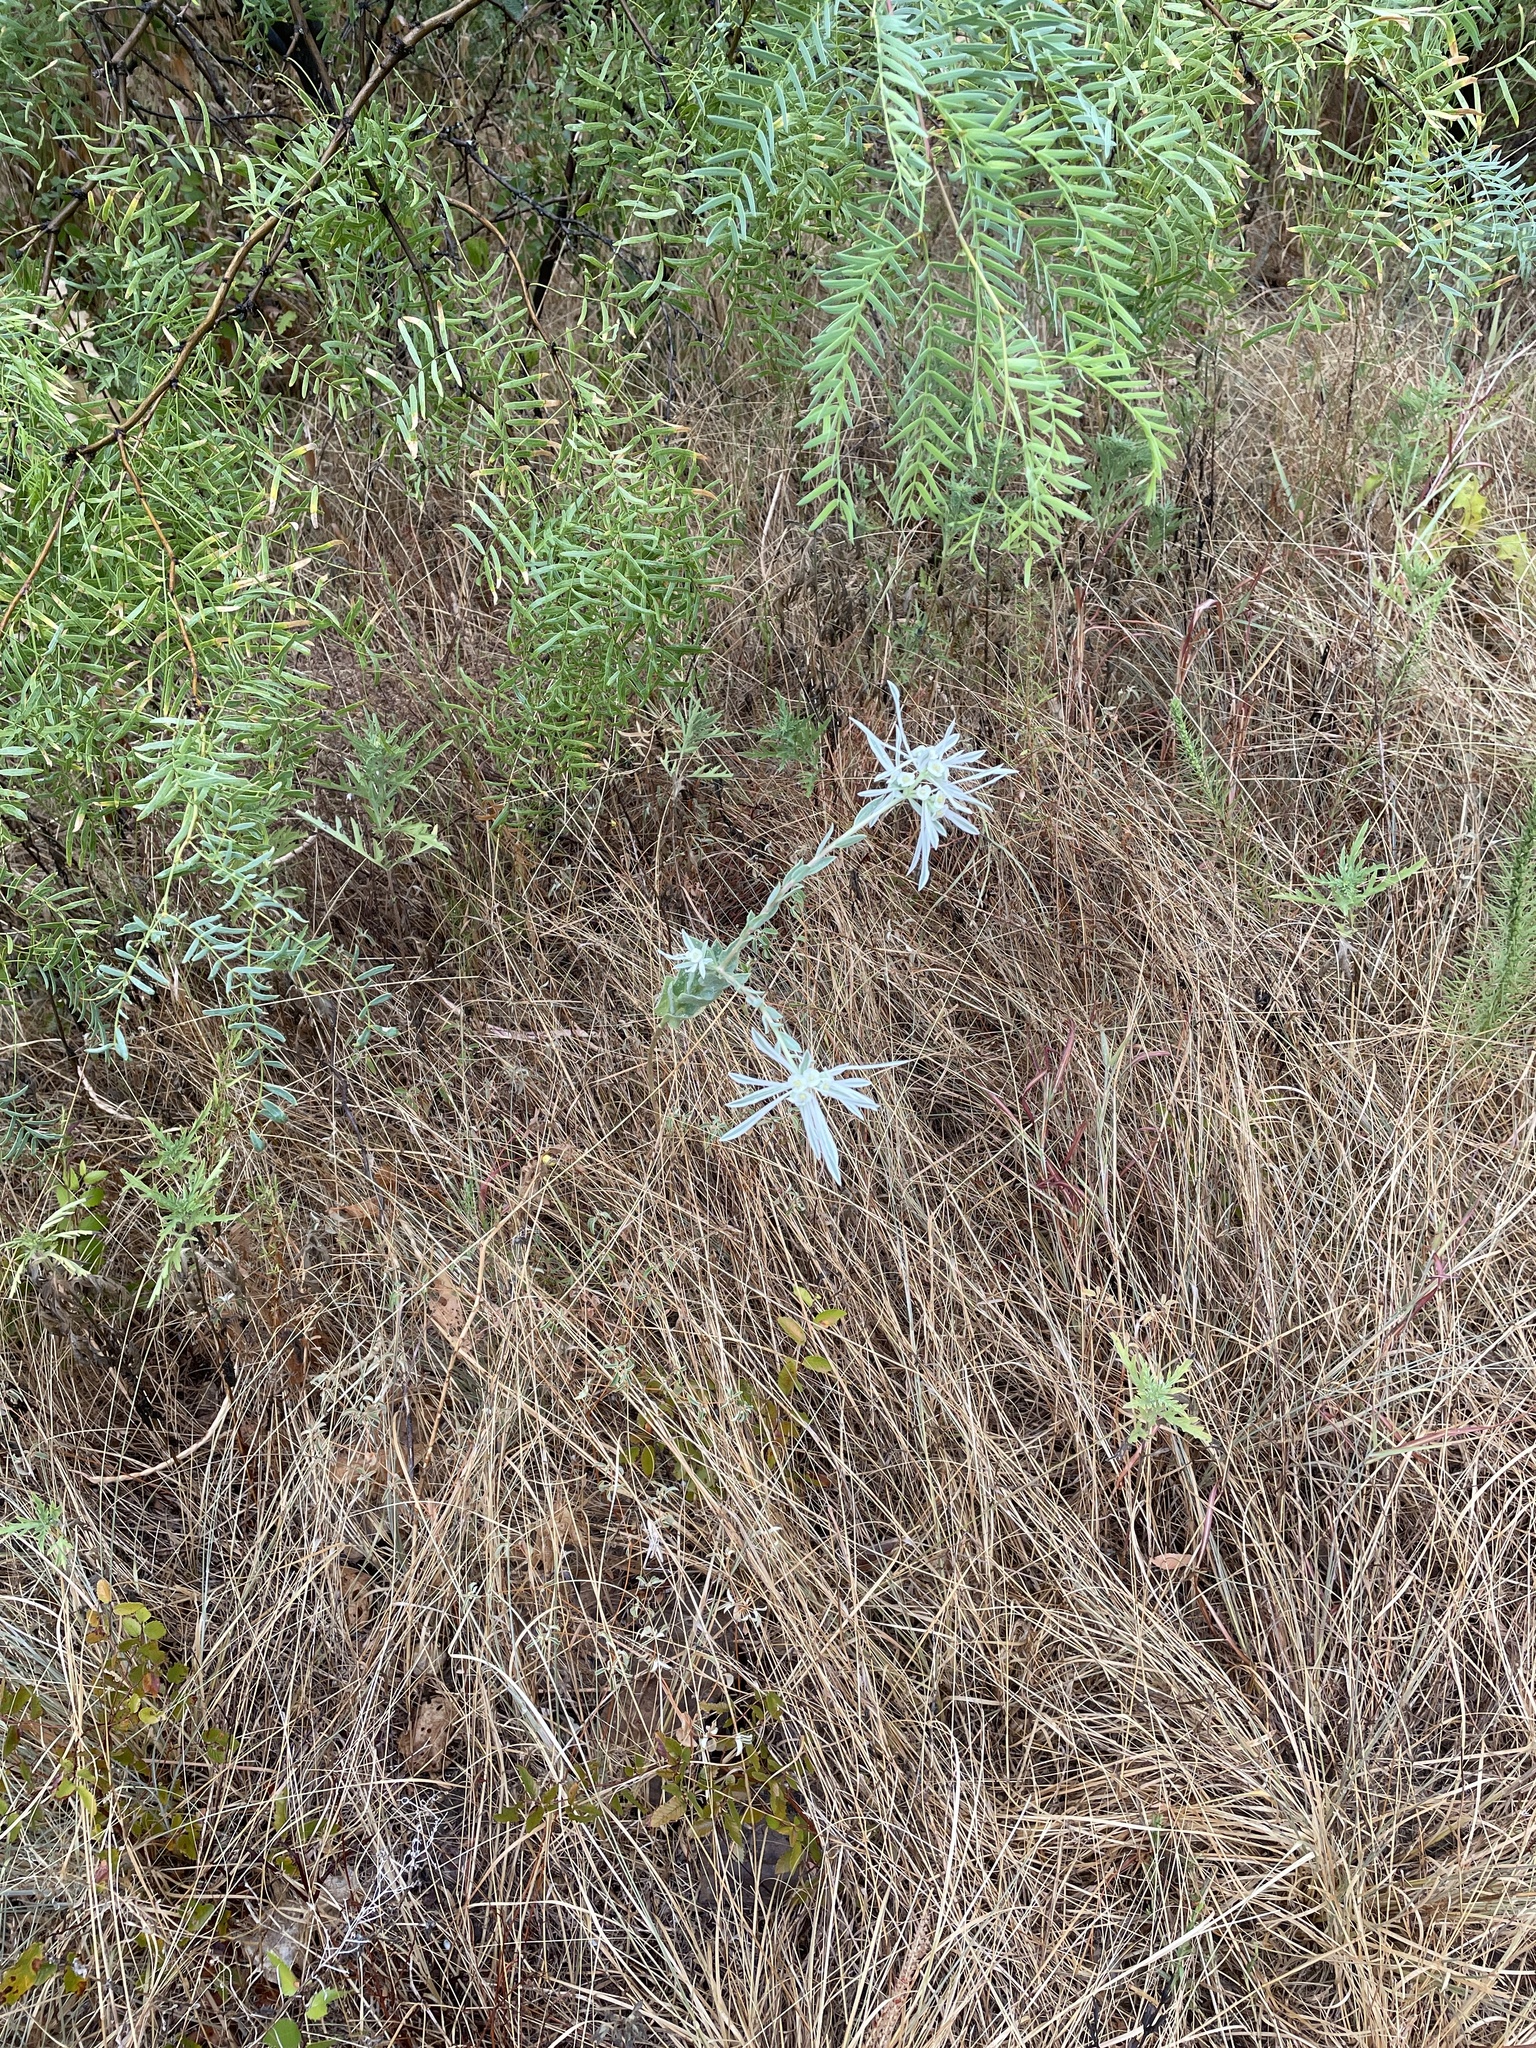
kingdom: Plantae
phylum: Tracheophyta
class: Magnoliopsida
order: Malpighiales
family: Euphorbiaceae
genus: Euphorbia
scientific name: Euphorbia bicolor
